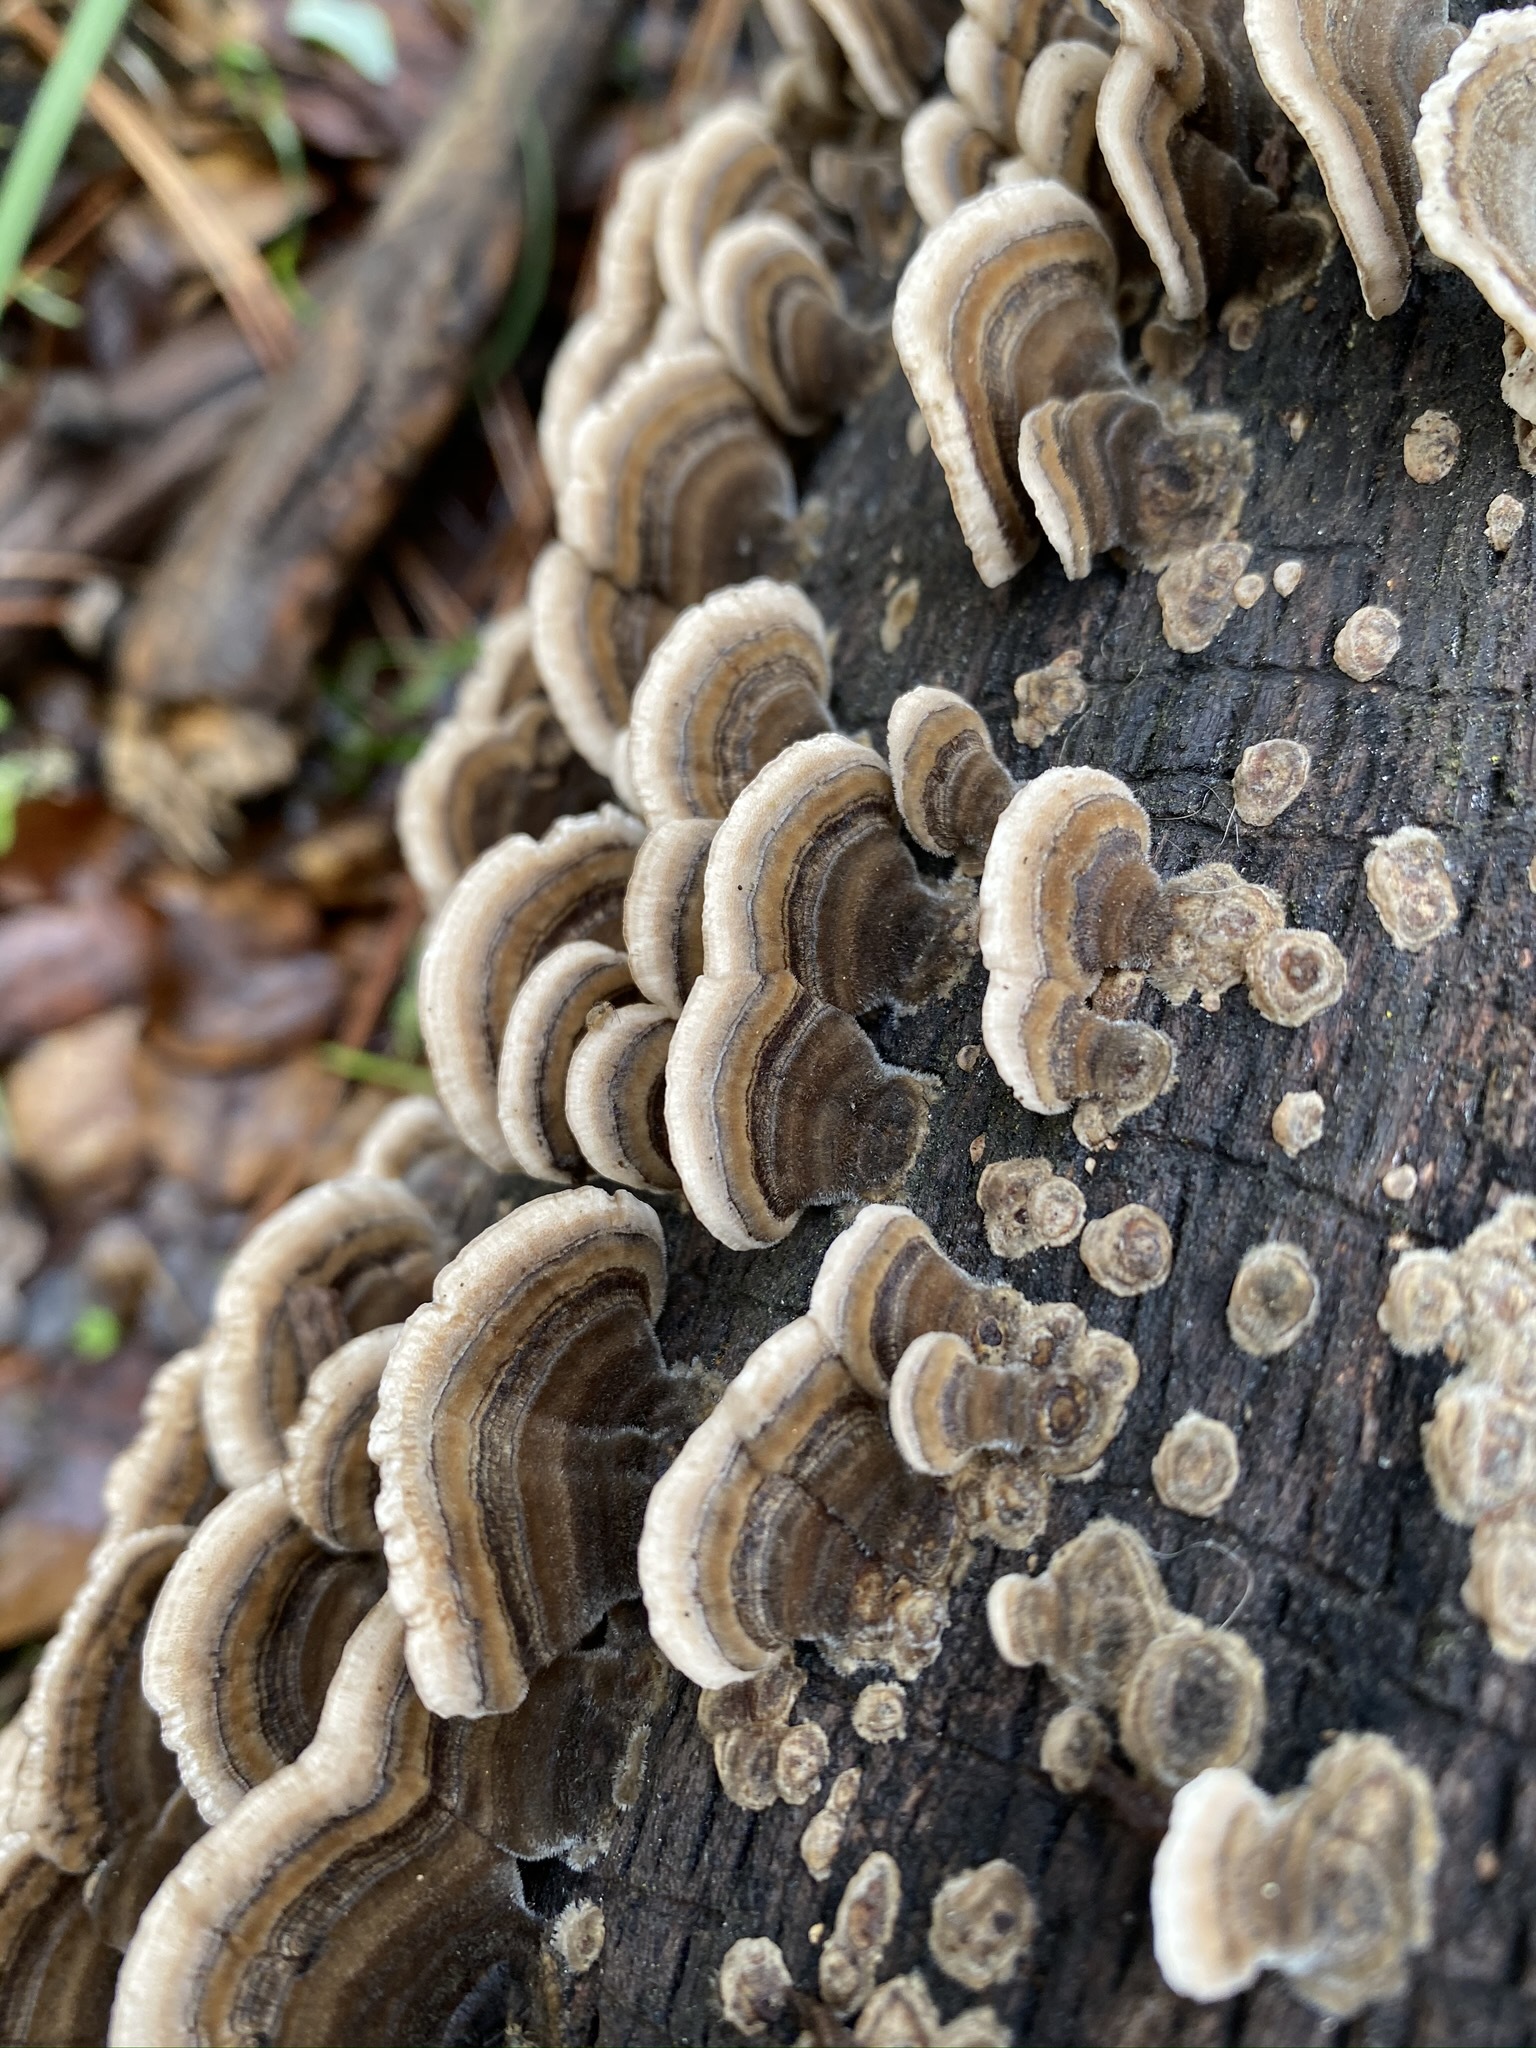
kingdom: Fungi
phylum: Basidiomycota
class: Agaricomycetes
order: Polyporales
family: Polyporaceae
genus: Trametes
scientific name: Trametes versicolor
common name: Turkeytail
